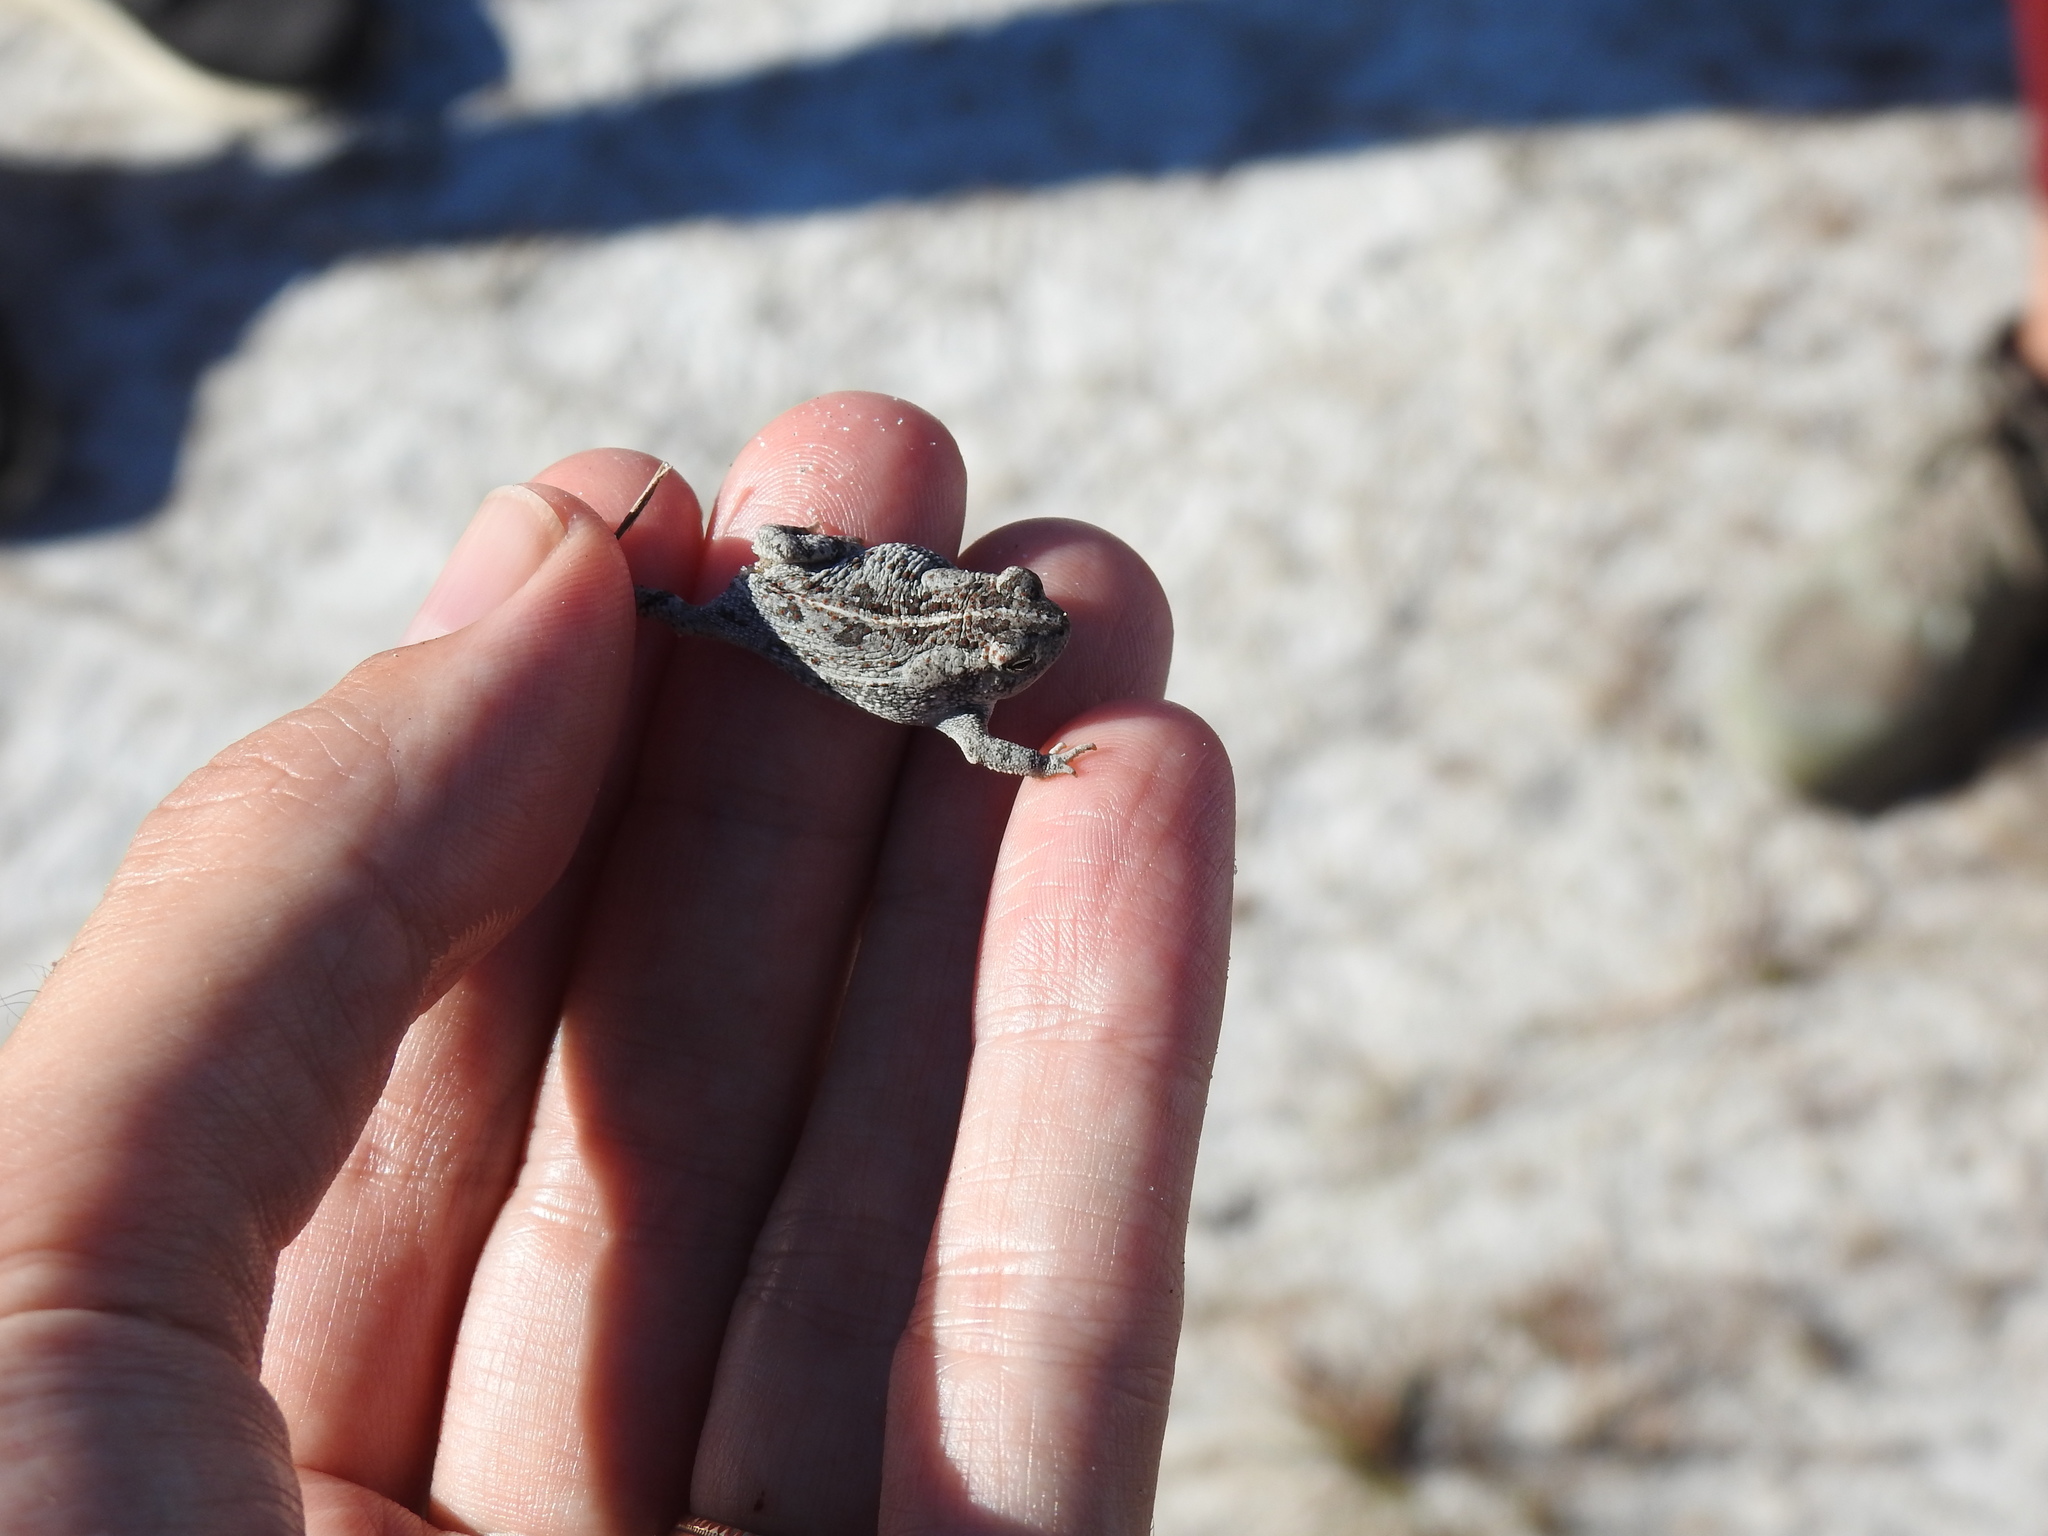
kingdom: Animalia
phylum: Chordata
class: Amphibia
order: Anura
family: Bufonidae
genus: Anaxyrus
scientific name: Anaxyrus quercicus
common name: Oak toad
